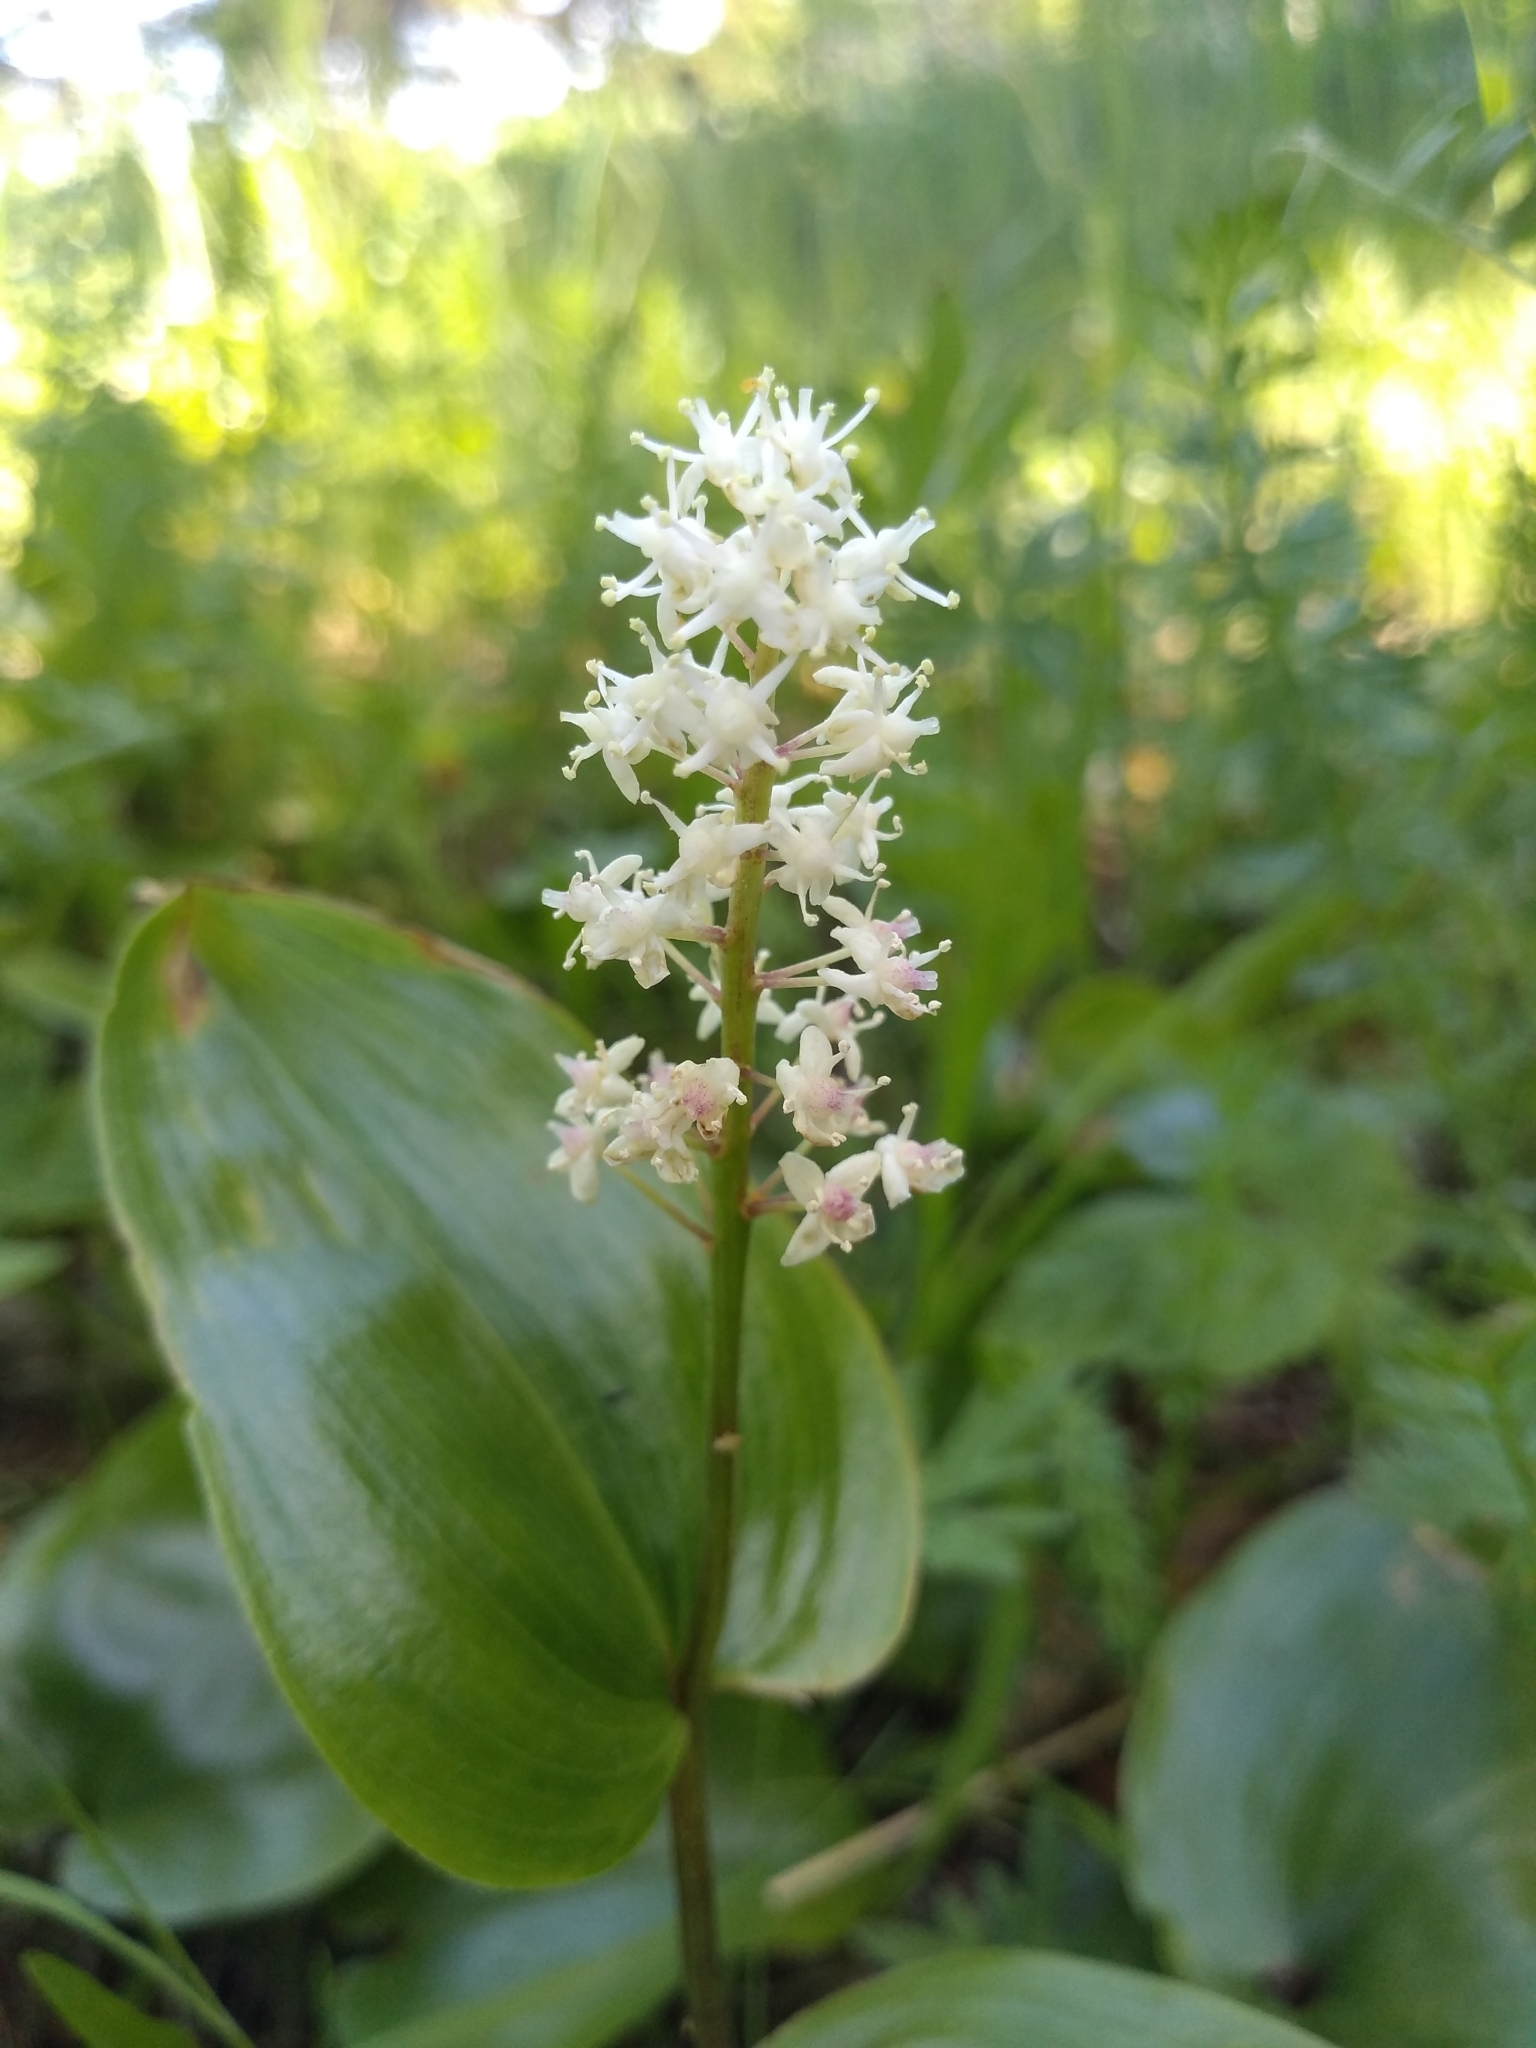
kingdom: Plantae
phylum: Tracheophyta
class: Liliopsida
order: Asparagales
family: Asparagaceae
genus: Maianthemum
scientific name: Maianthemum canadense
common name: False lily-of-the-valley
